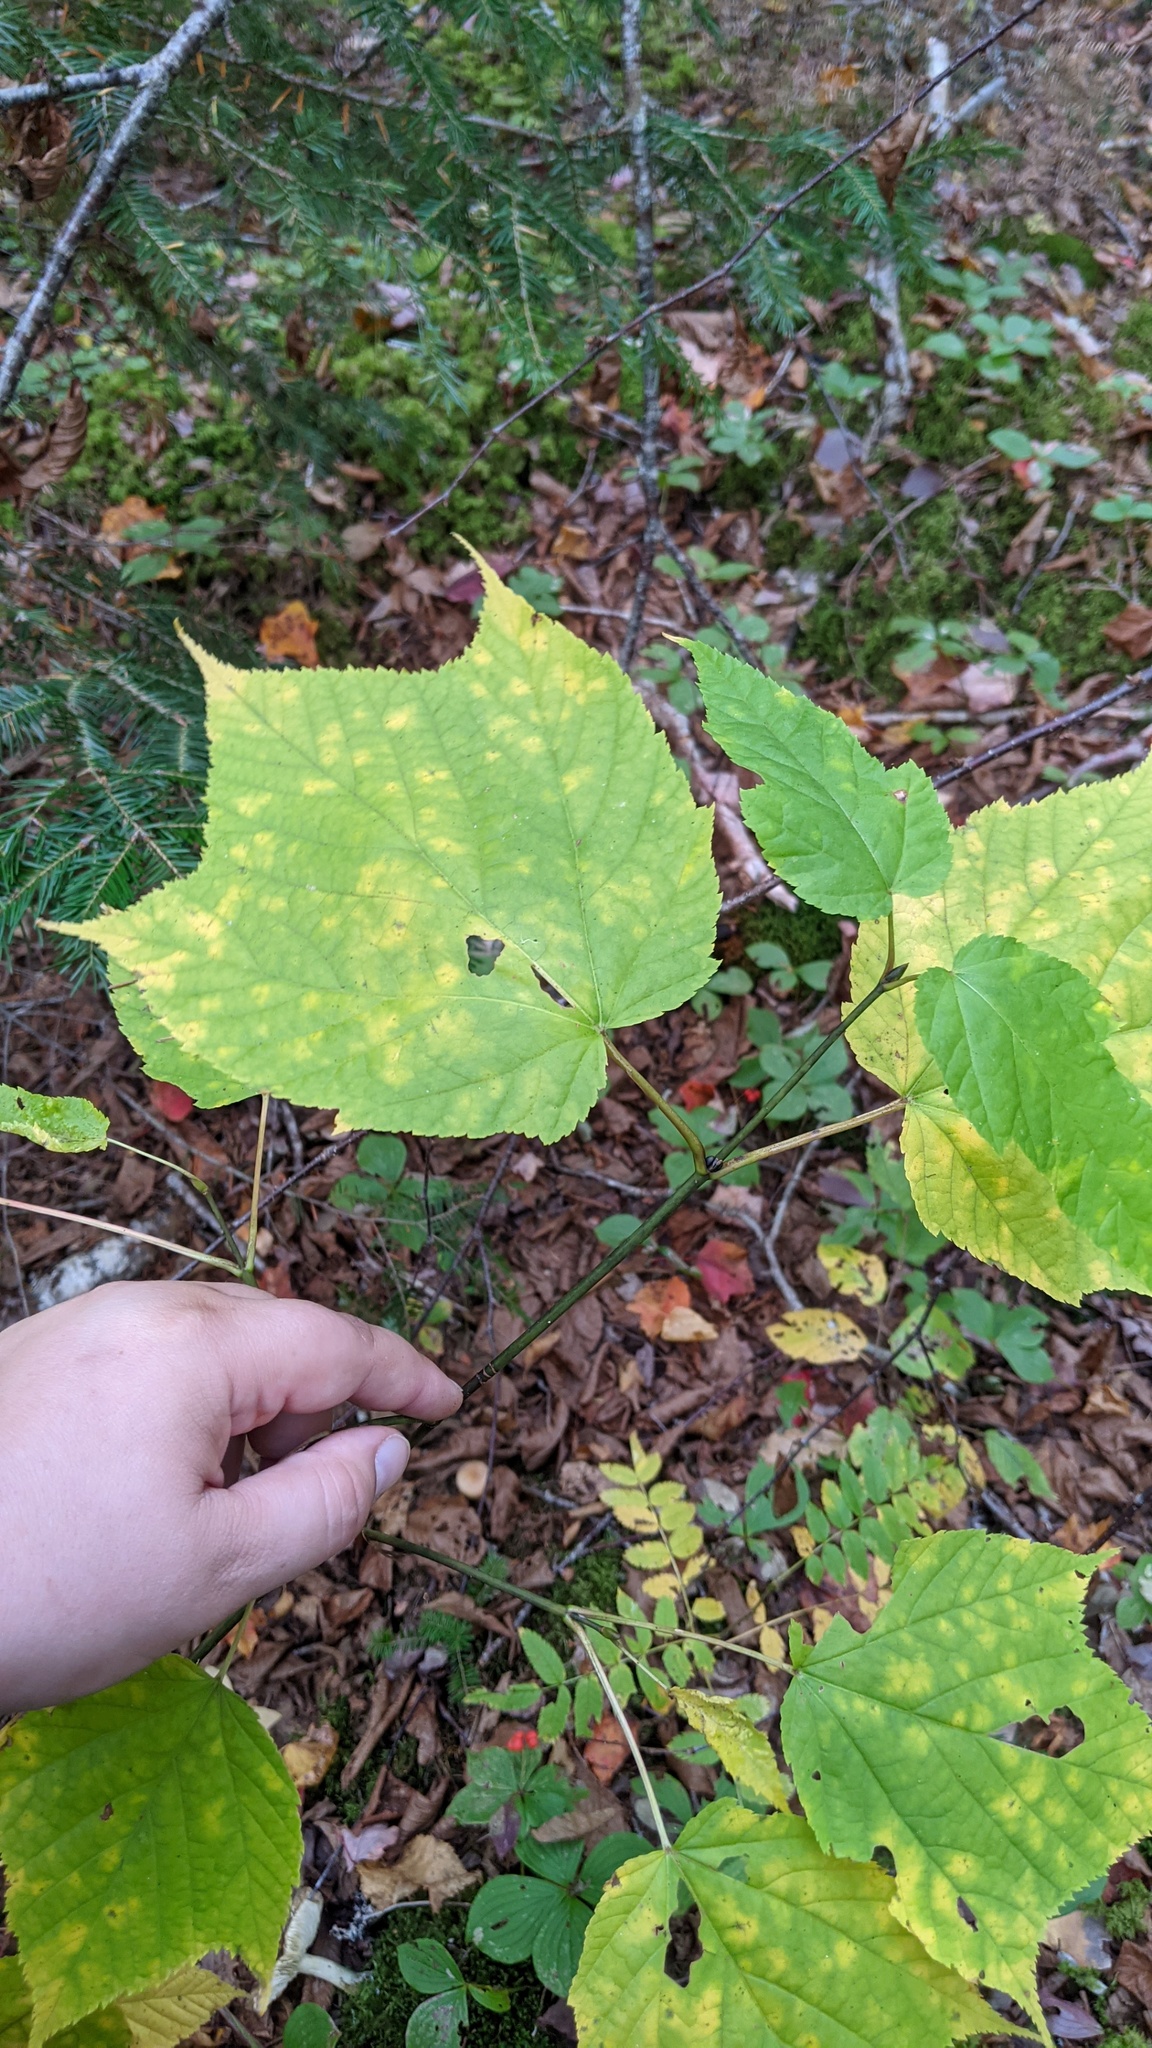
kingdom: Plantae
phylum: Tracheophyta
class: Magnoliopsida
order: Sapindales
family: Sapindaceae
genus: Acer
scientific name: Acer pensylvanicum
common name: Moosewood
